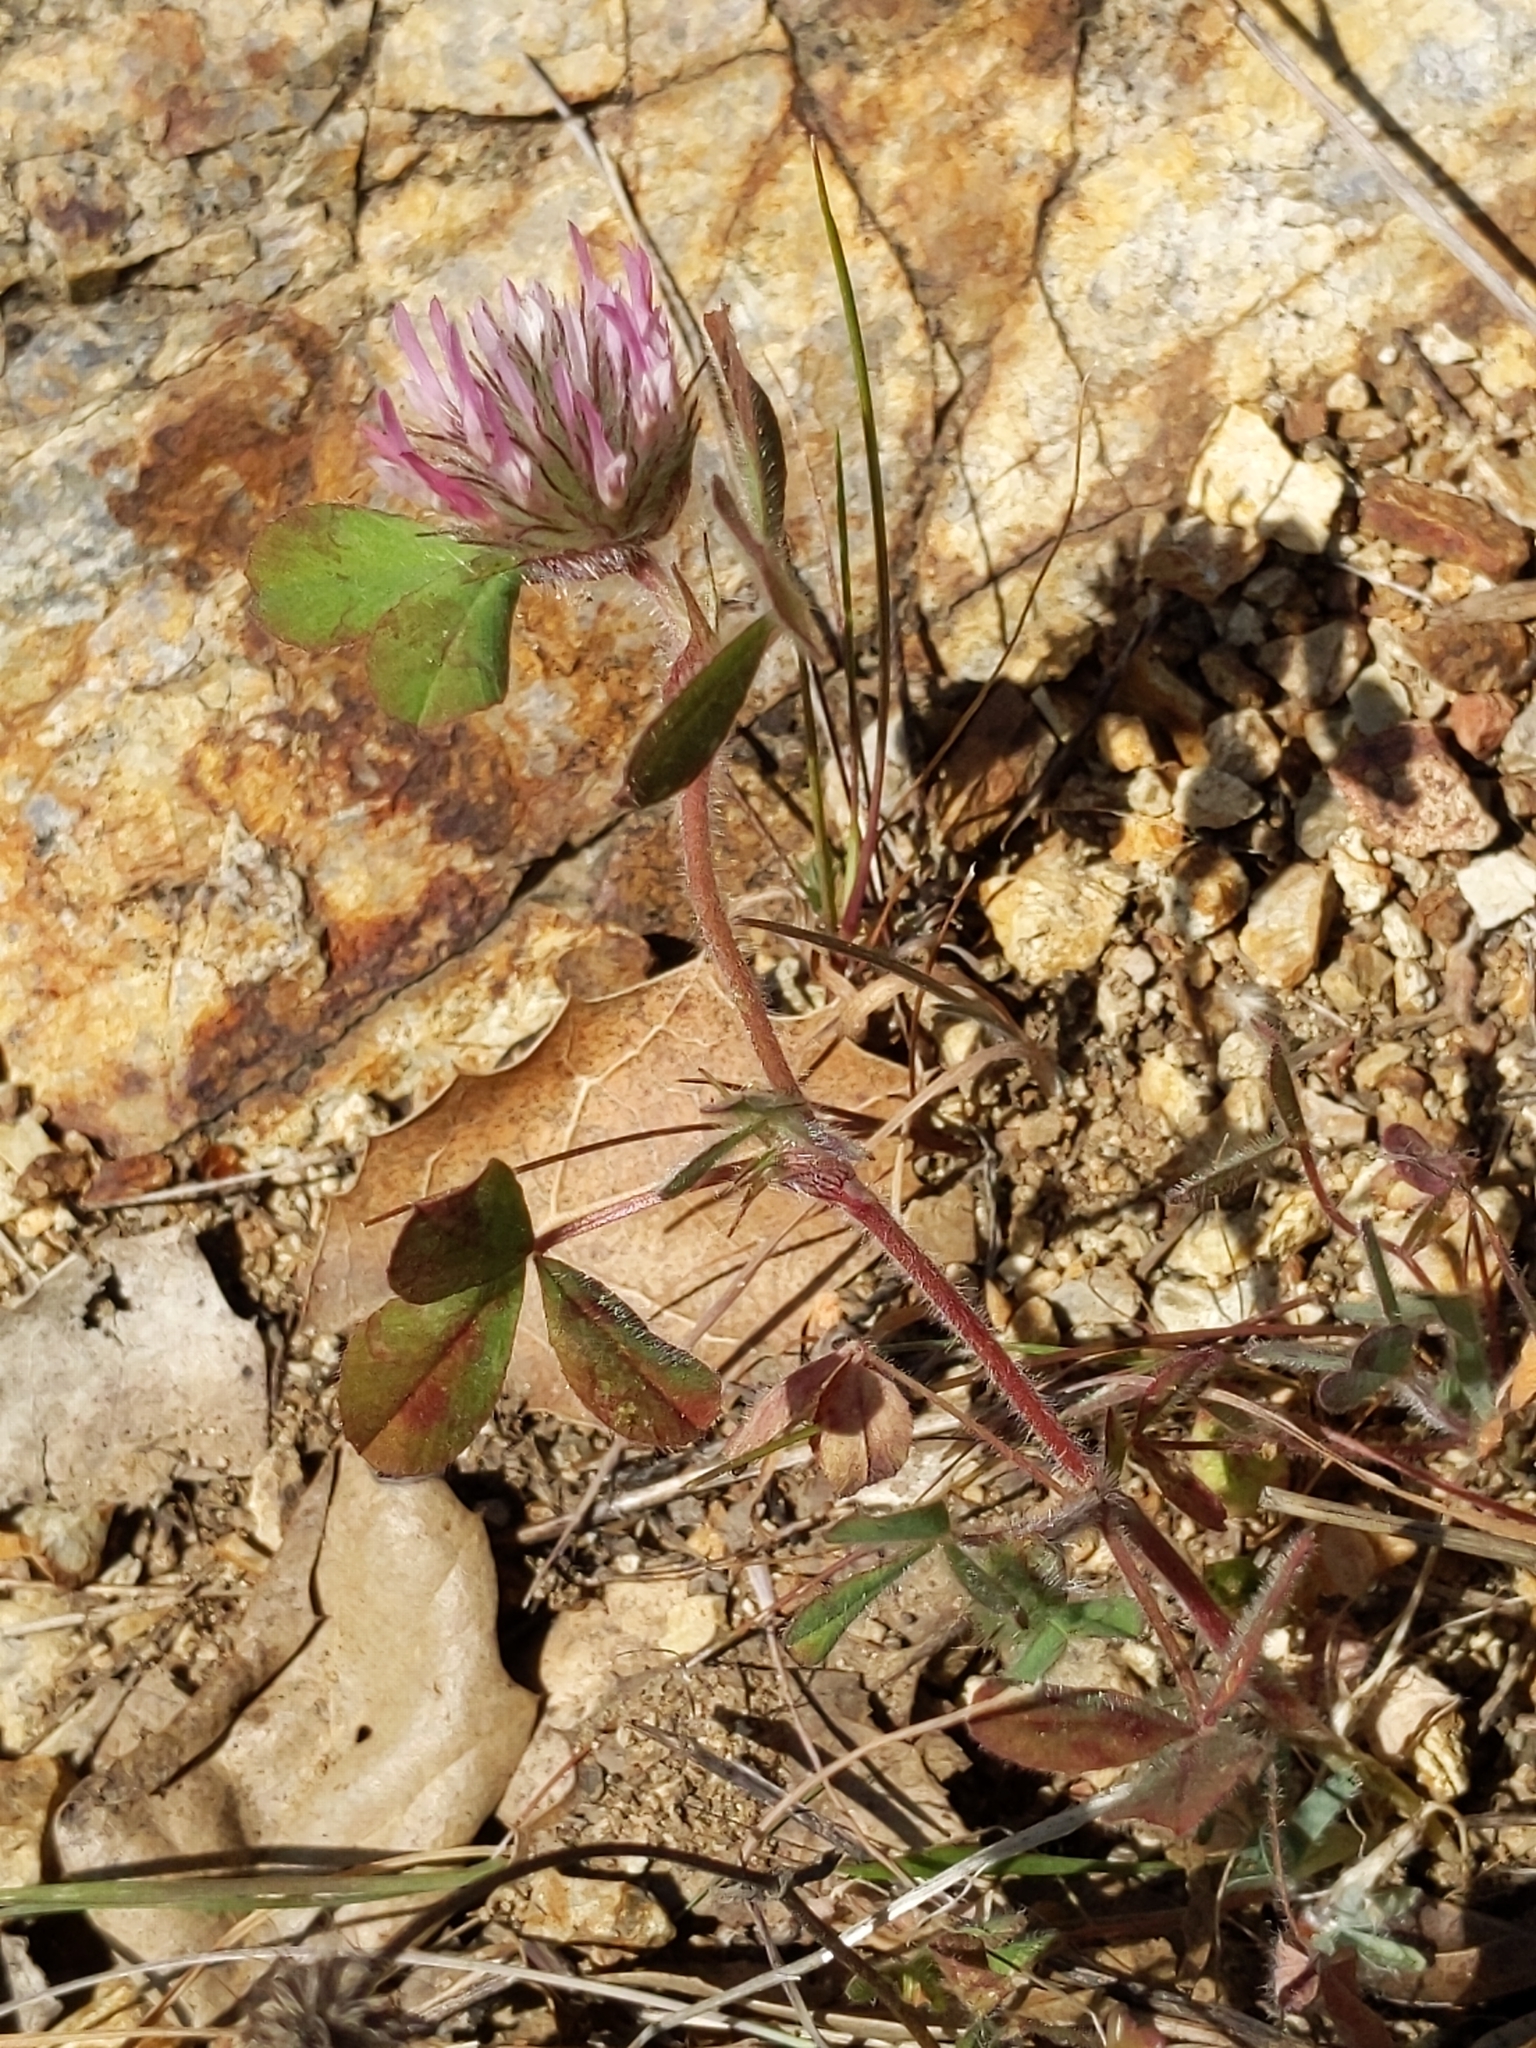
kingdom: Plantae
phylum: Tracheophyta
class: Magnoliopsida
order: Fabales
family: Fabaceae
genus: Trifolium
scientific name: Trifolium hirtum
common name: Rose clover
